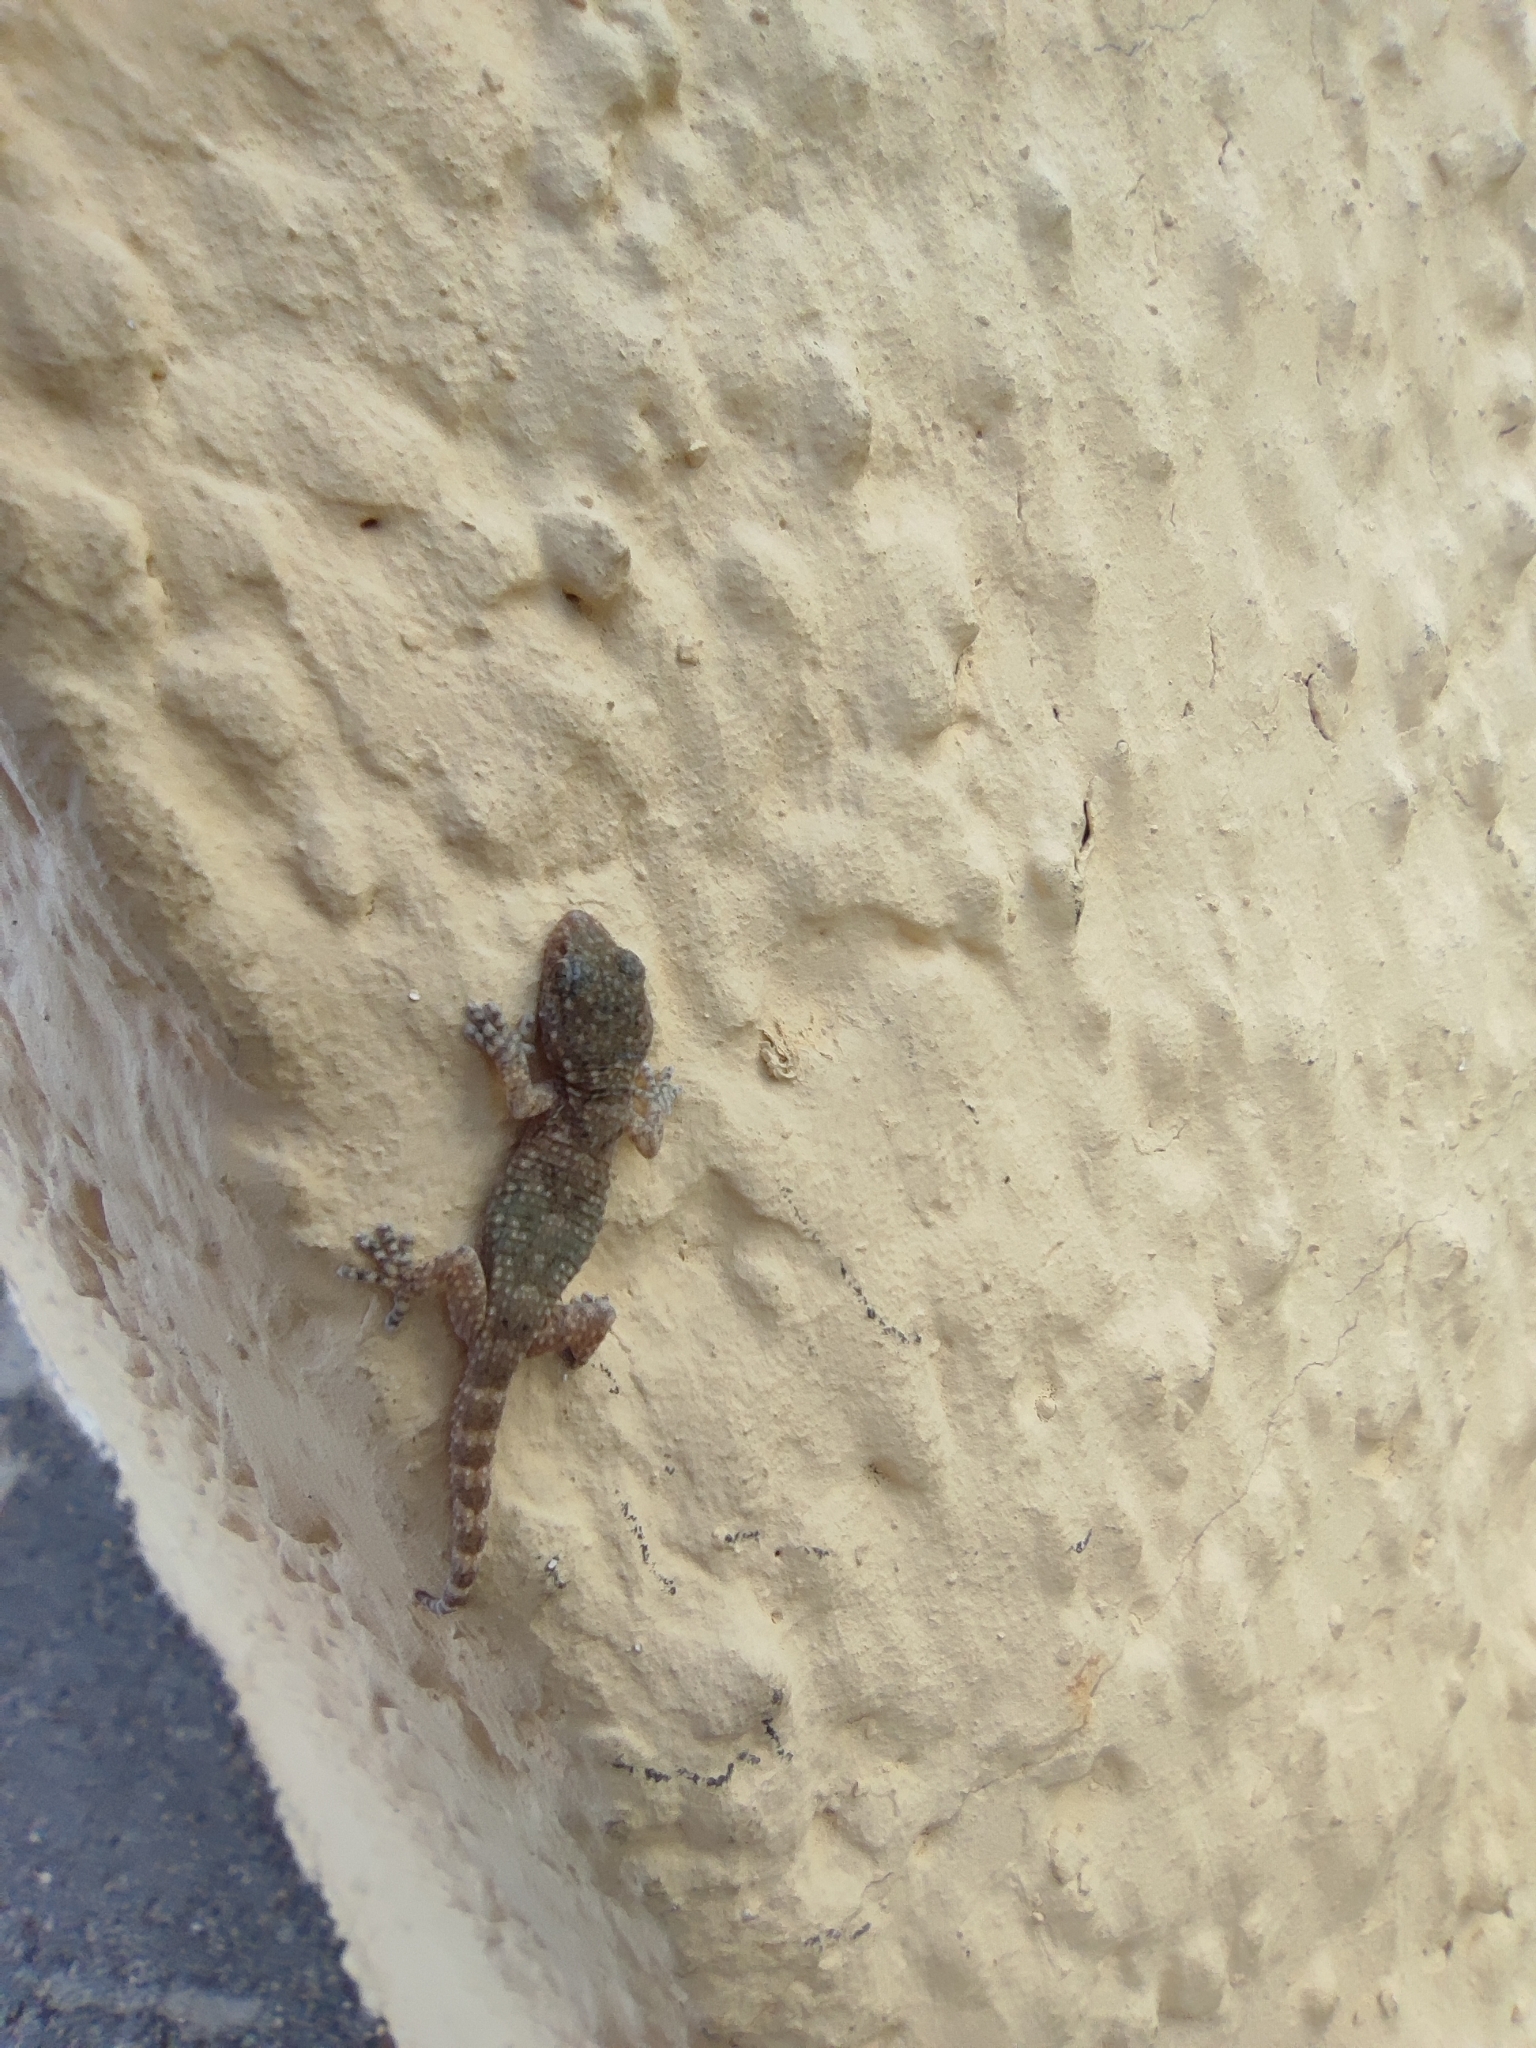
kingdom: Animalia
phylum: Chordata
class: Squamata
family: Phyllodactylidae
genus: Tarentola
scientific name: Tarentola mauritanica
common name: Moorish gecko
